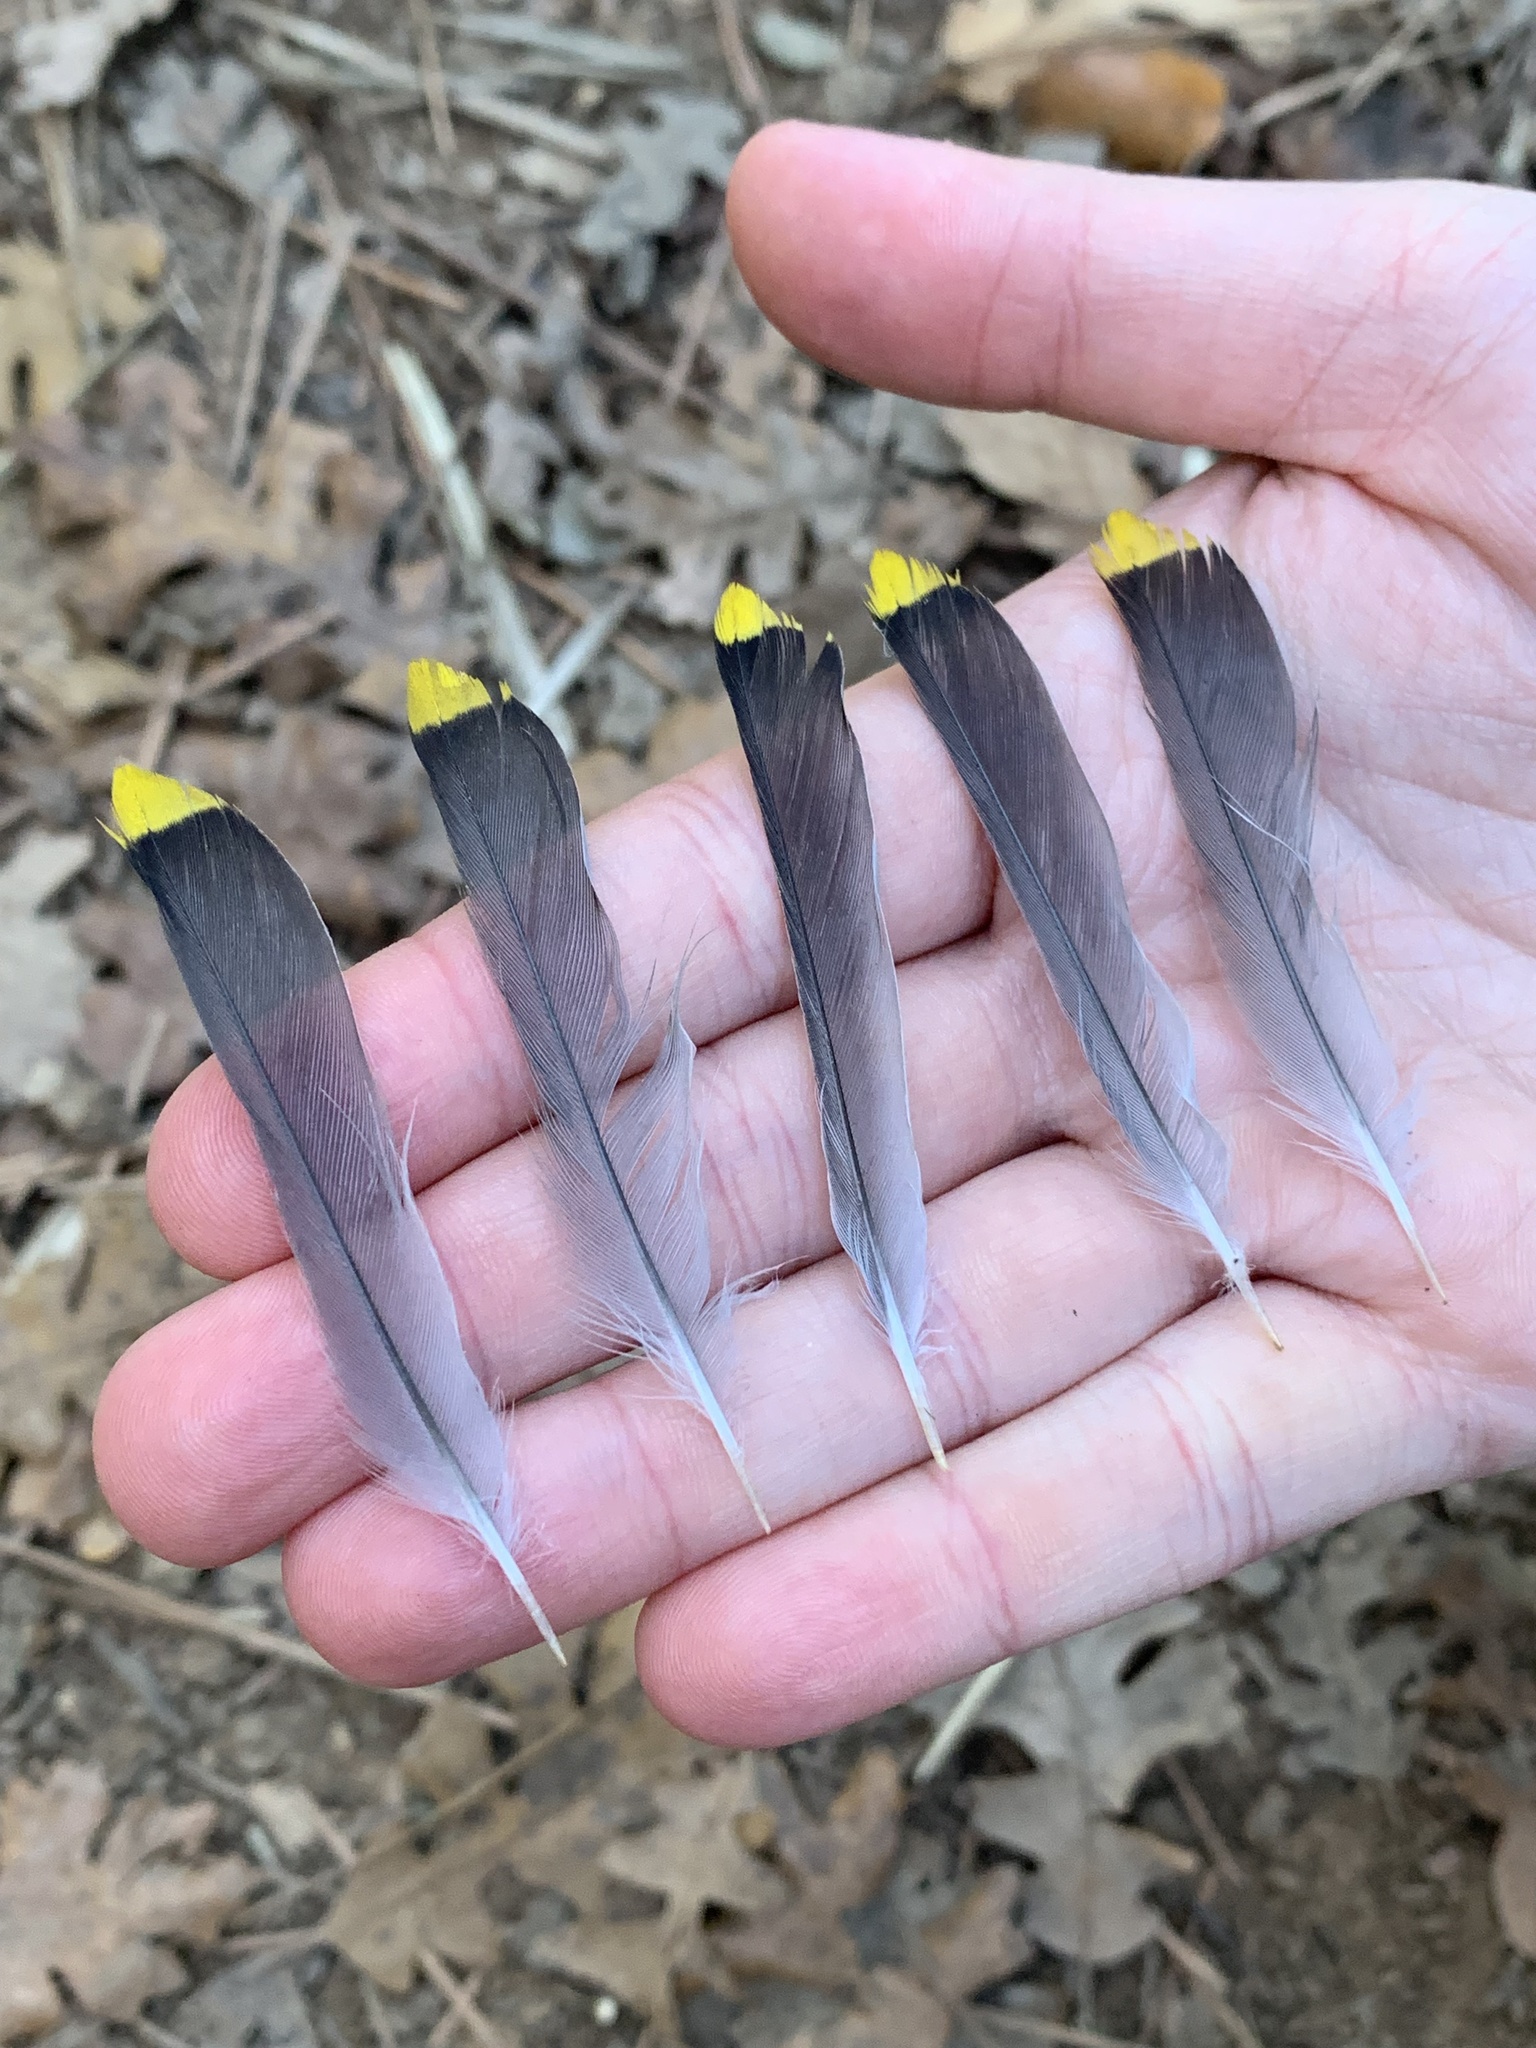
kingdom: Animalia
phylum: Chordata
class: Aves
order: Passeriformes
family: Bombycillidae
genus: Bombycilla
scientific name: Bombycilla cedrorum
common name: Cedar waxwing
